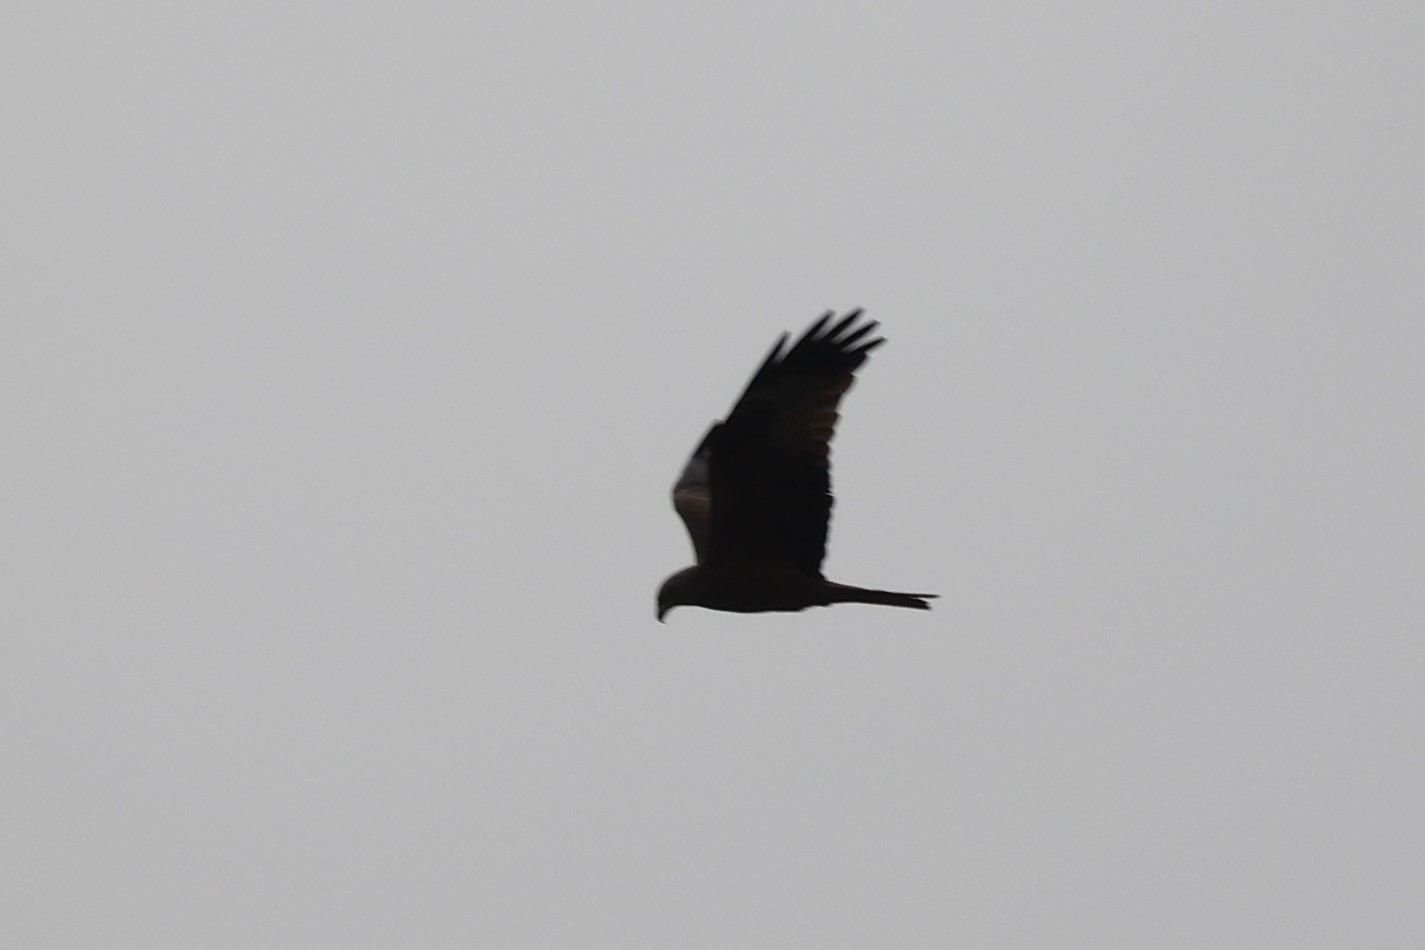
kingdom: Animalia
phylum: Chordata
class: Aves
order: Accipitriformes
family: Accipitridae
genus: Milvus
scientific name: Milvus migrans
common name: Black kite
